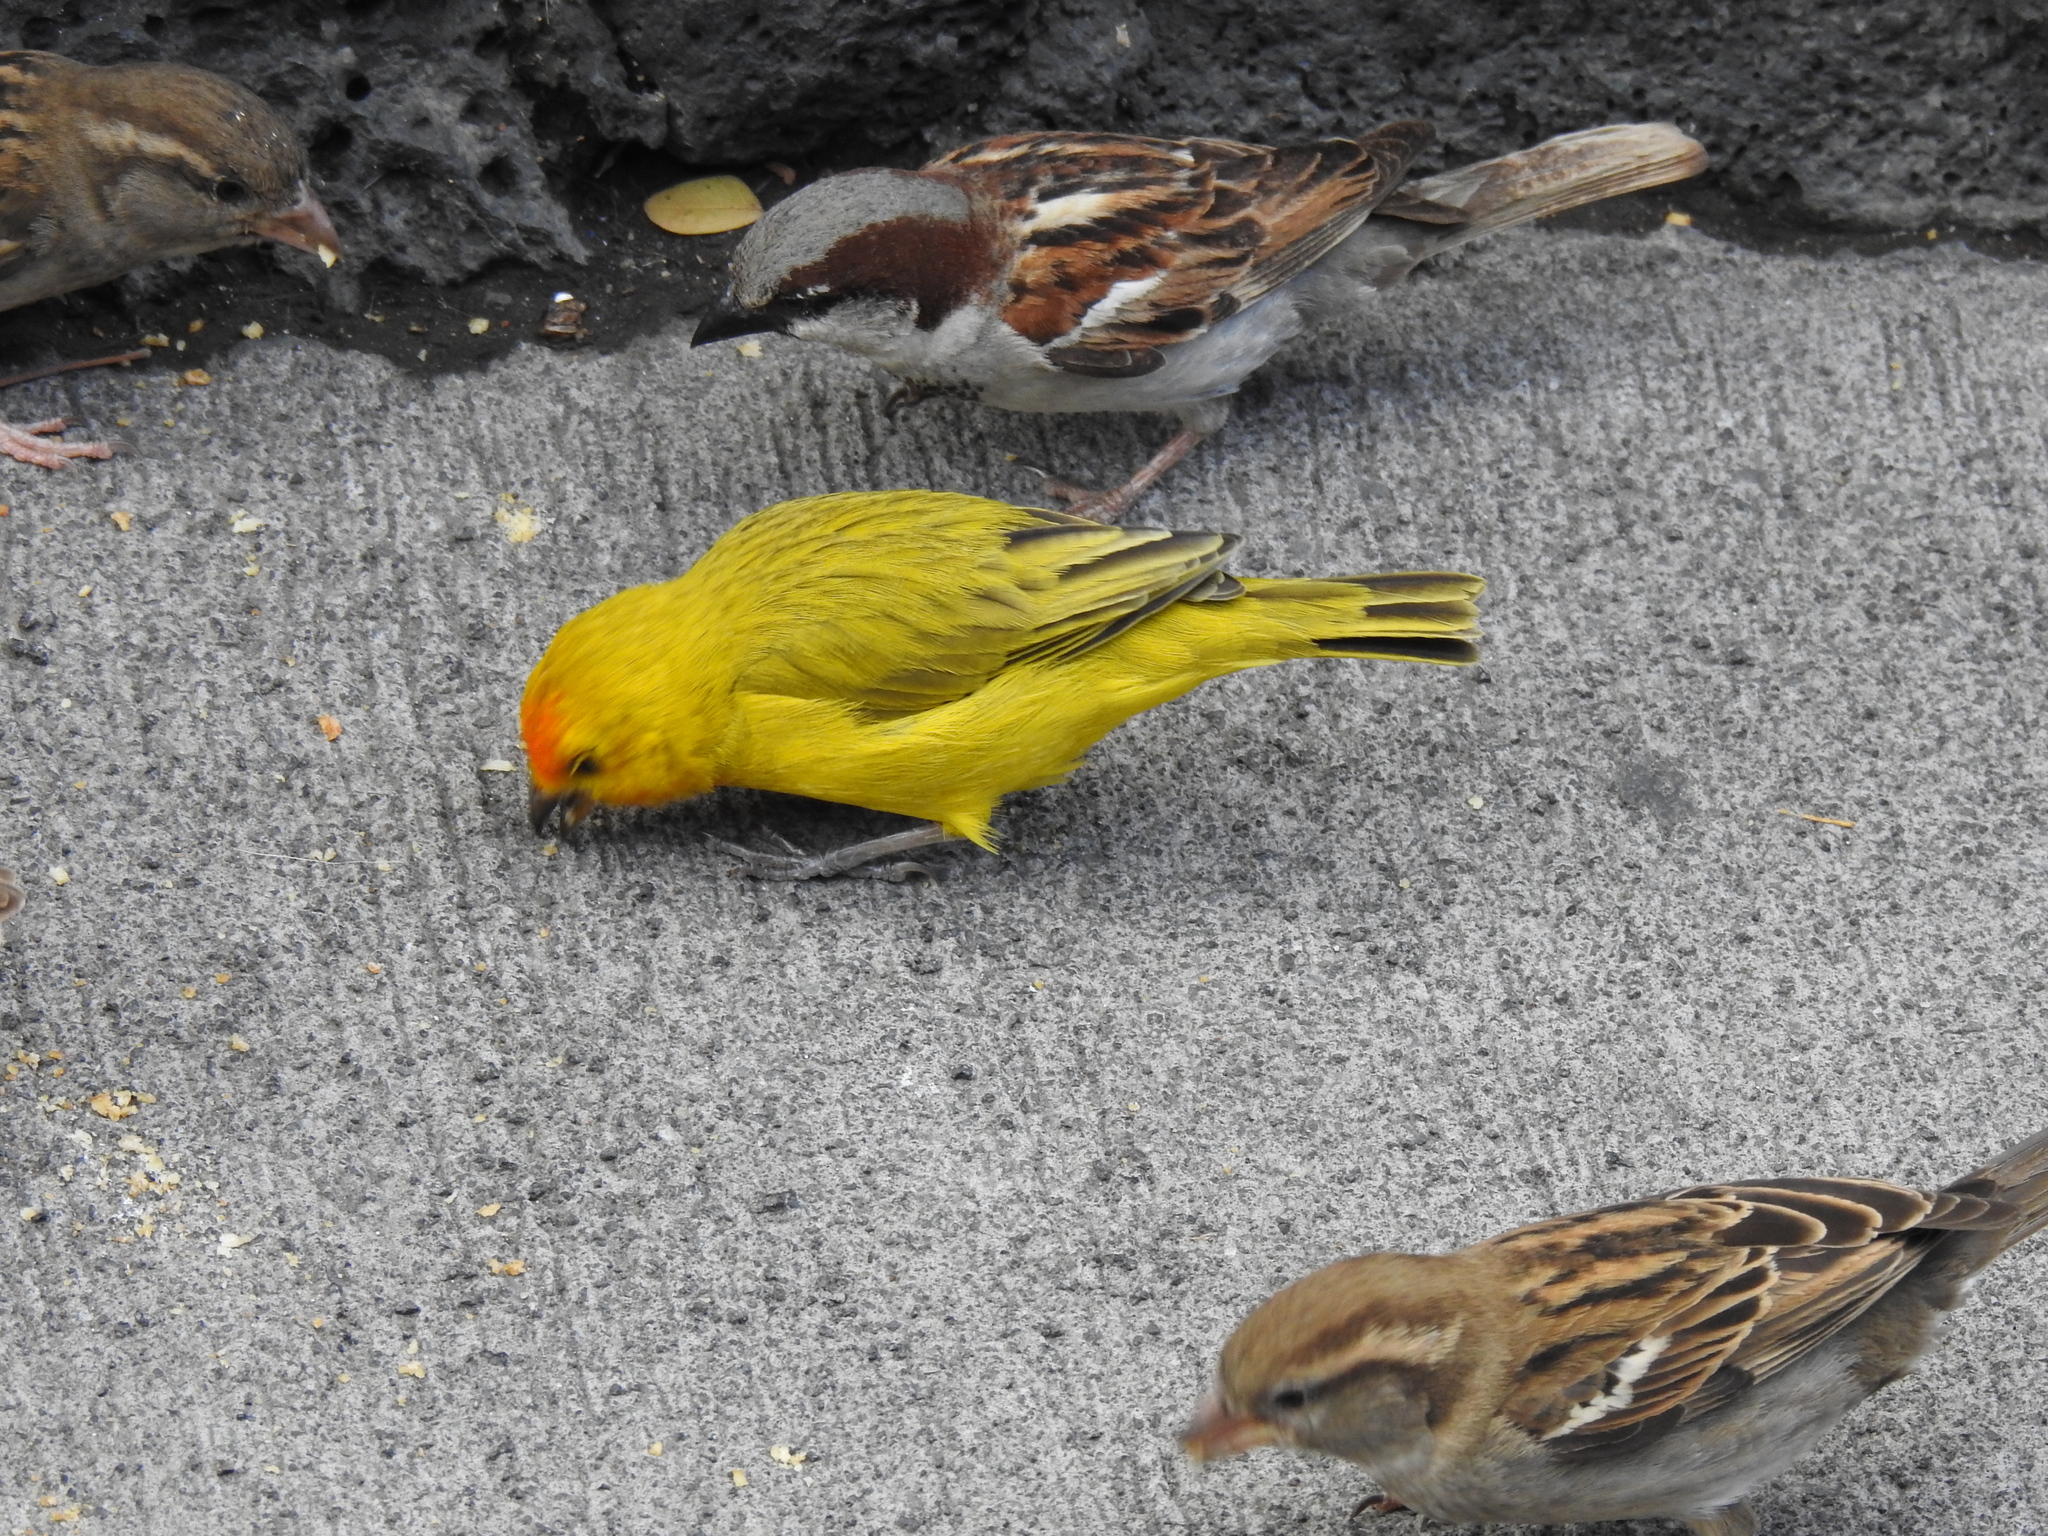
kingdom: Animalia
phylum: Chordata
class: Aves
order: Passeriformes
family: Thraupidae
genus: Sicalis
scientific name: Sicalis flaveola
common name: Saffron finch
